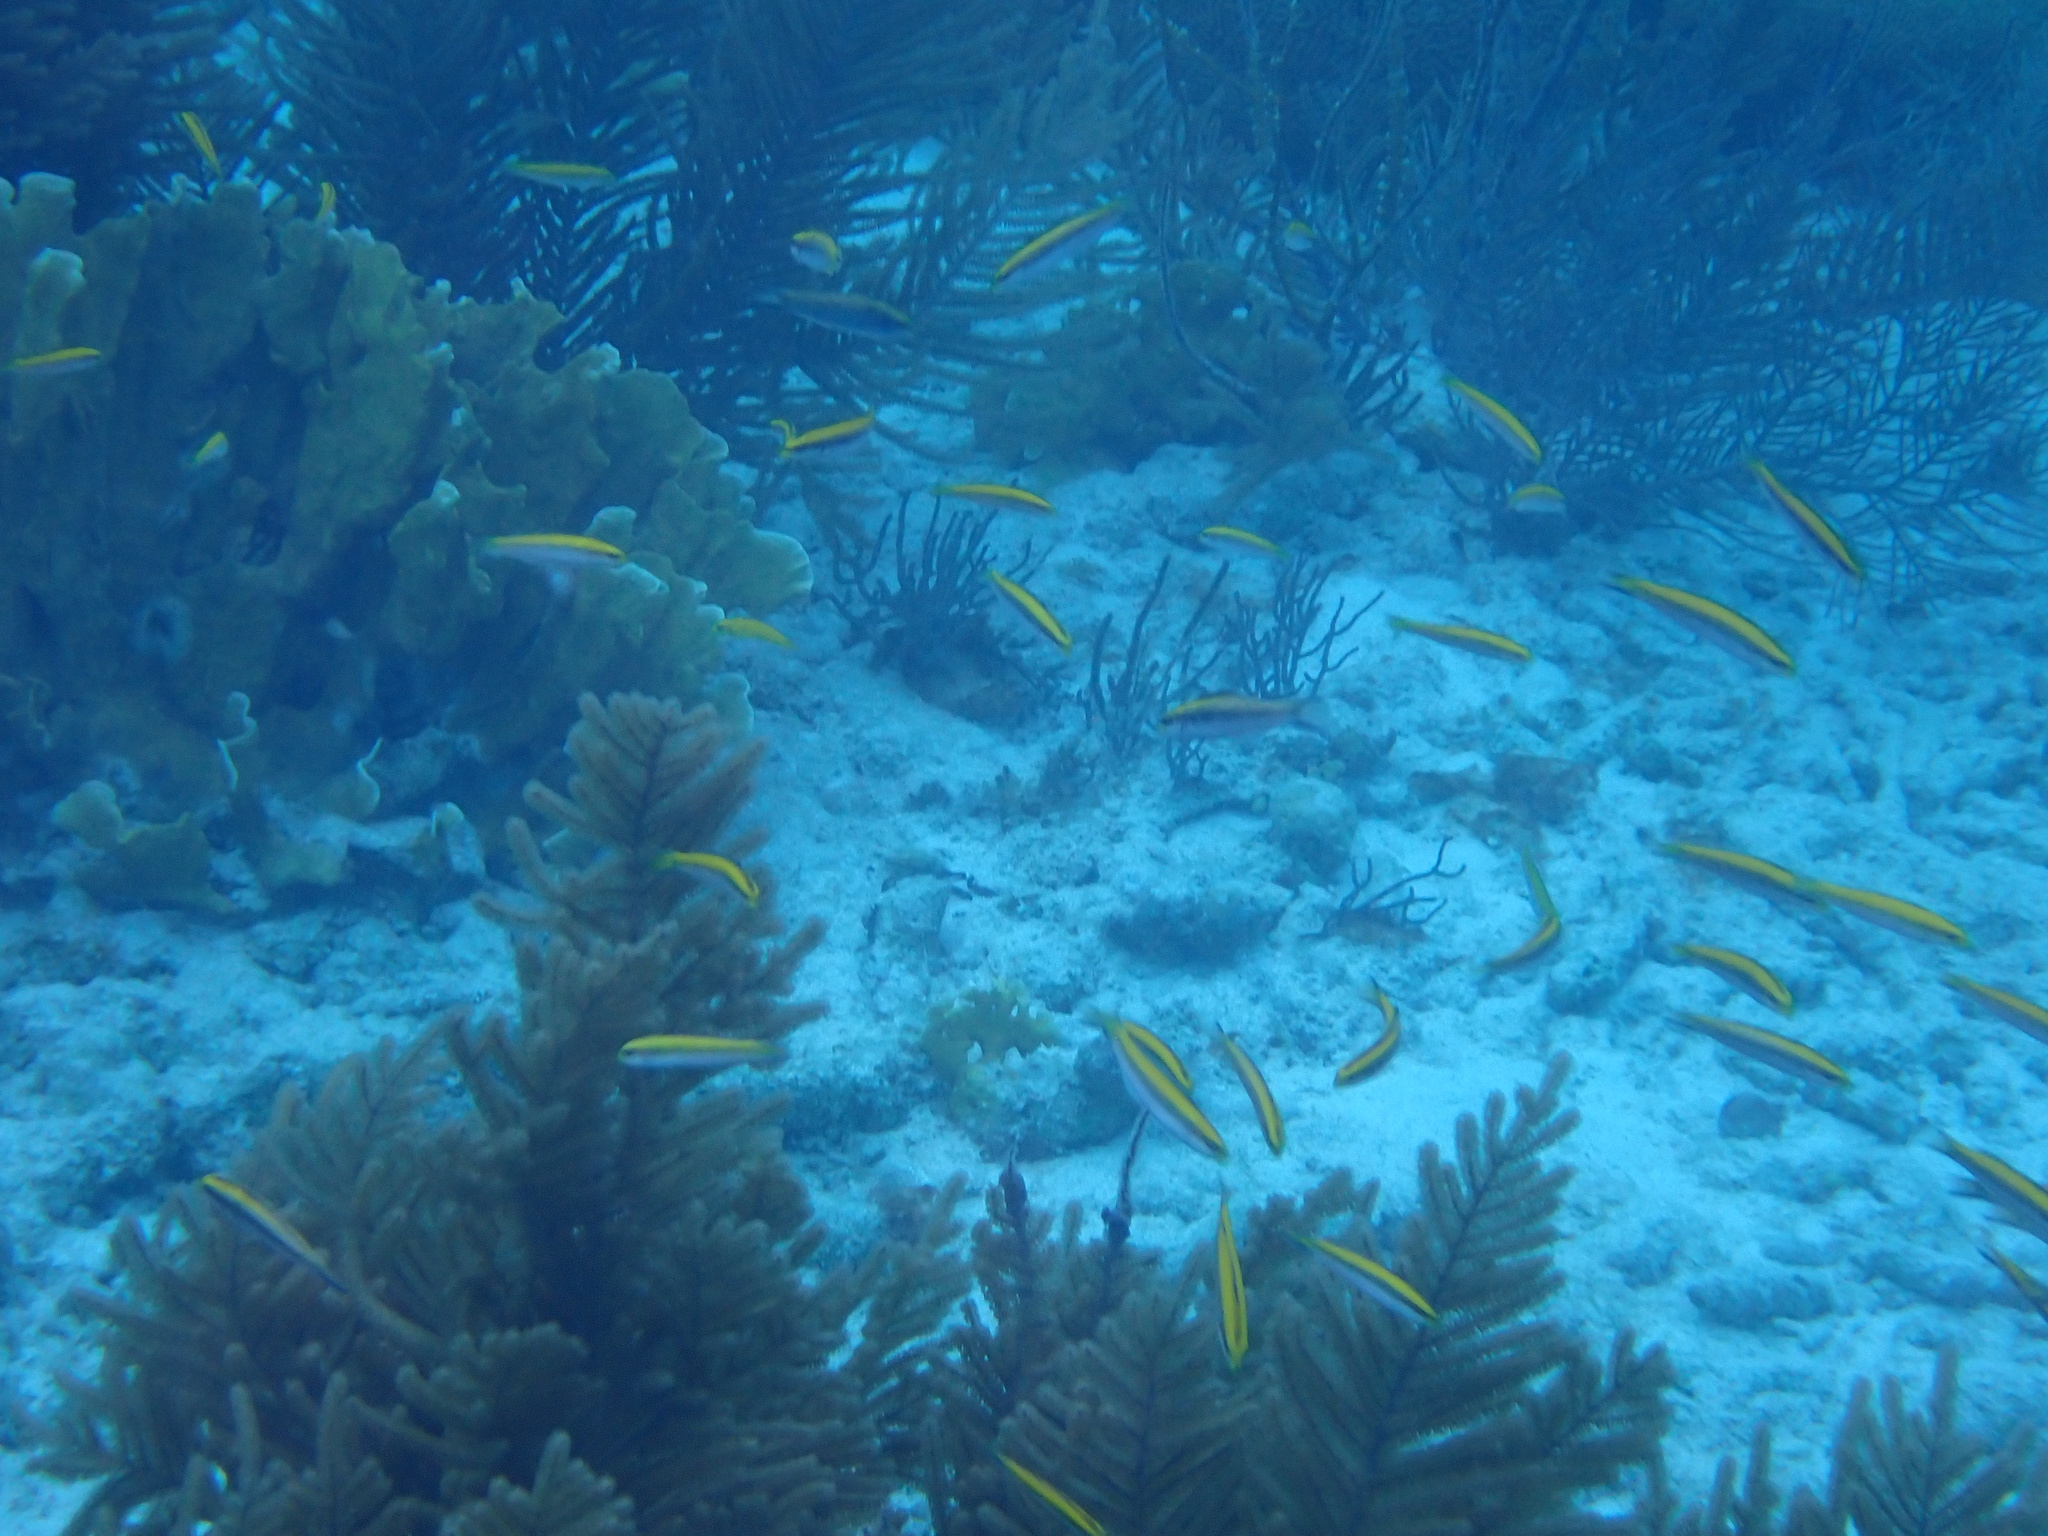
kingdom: Animalia
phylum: Chordata
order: Perciformes
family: Labridae
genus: Thalassoma
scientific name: Thalassoma bifasciatum
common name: Bluehead wrasse
